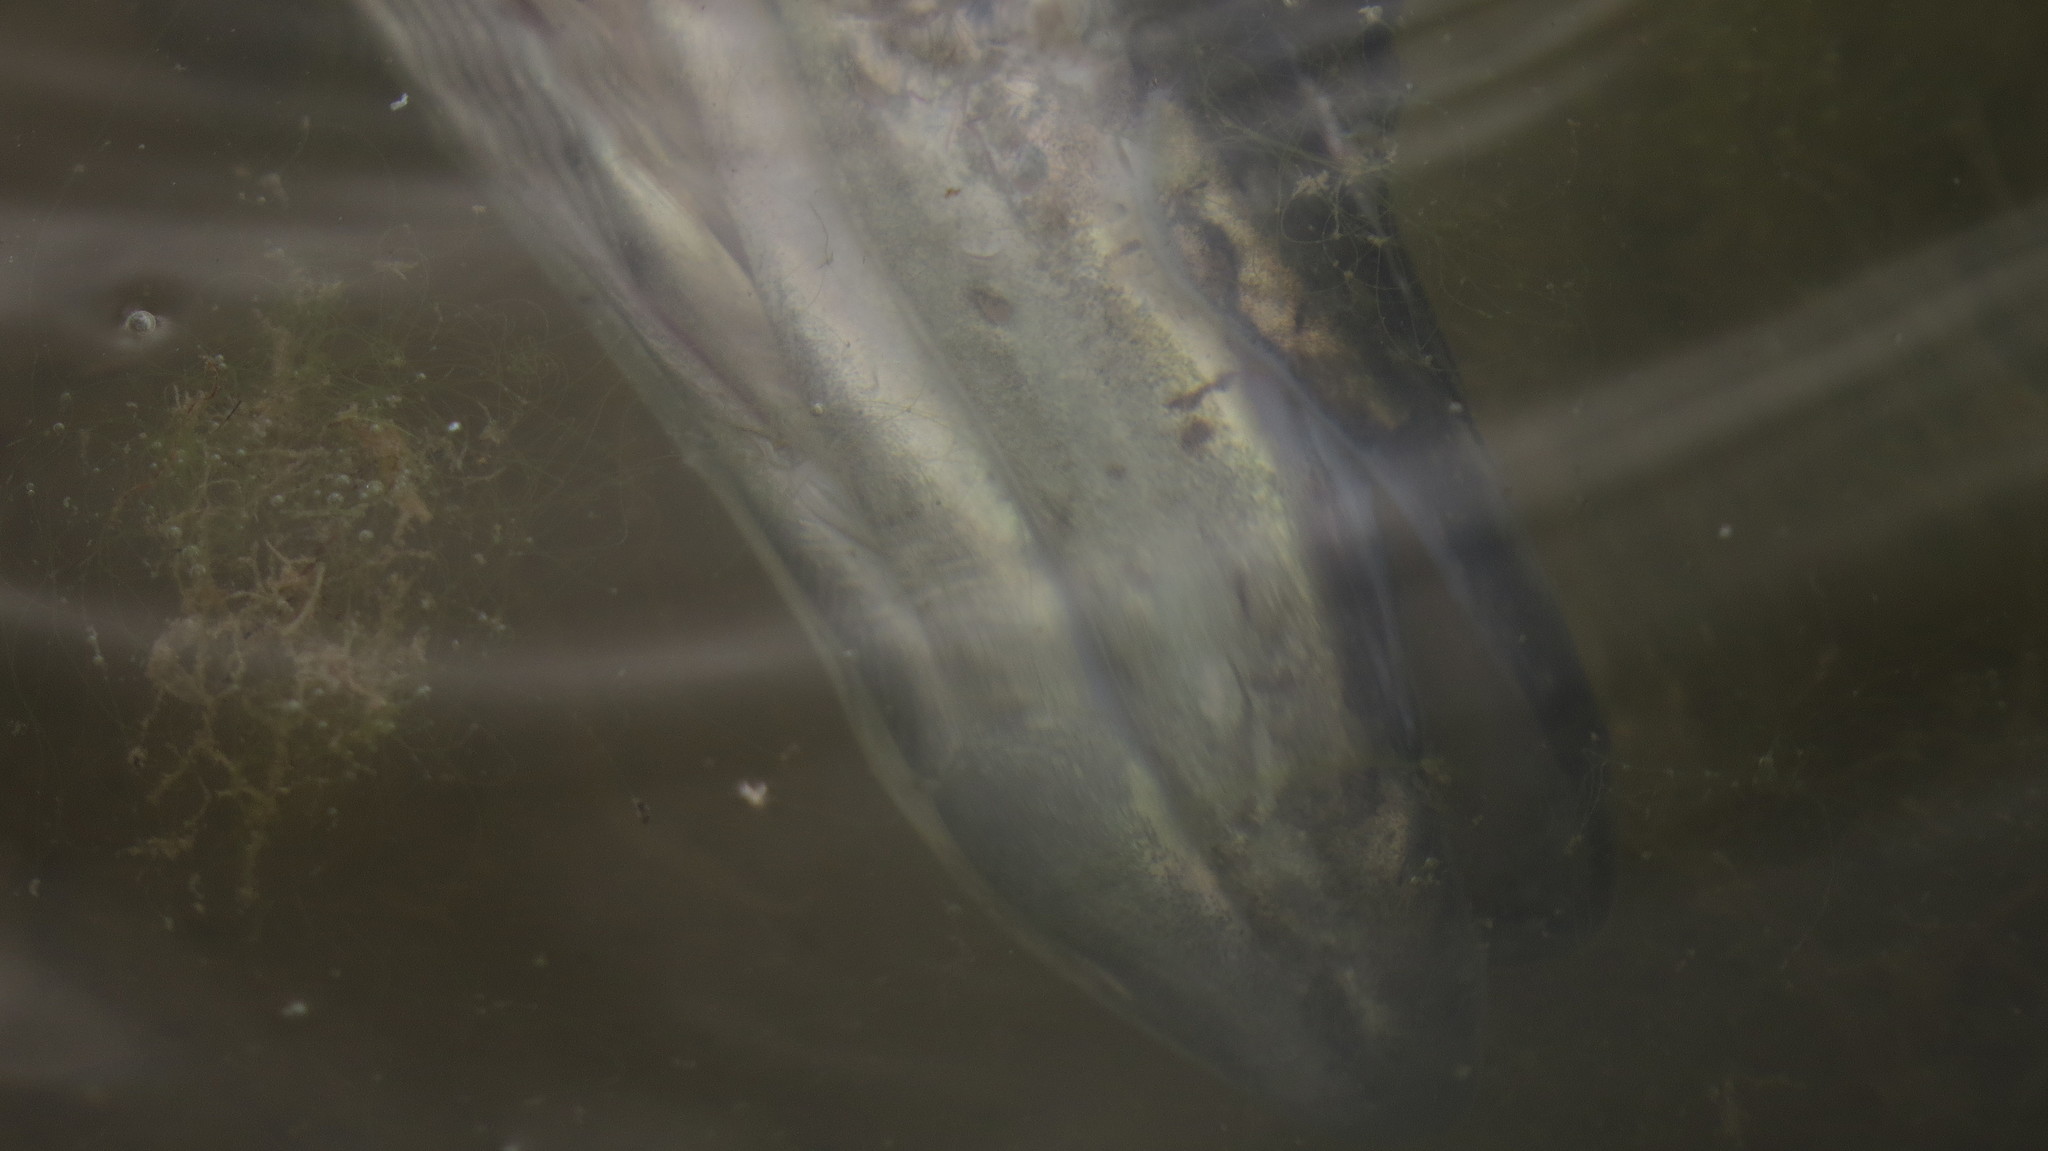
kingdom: Animalia
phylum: Chordata
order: Esociformes
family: Esocidae
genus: Esox
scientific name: Esox lucius
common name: Northern pike
